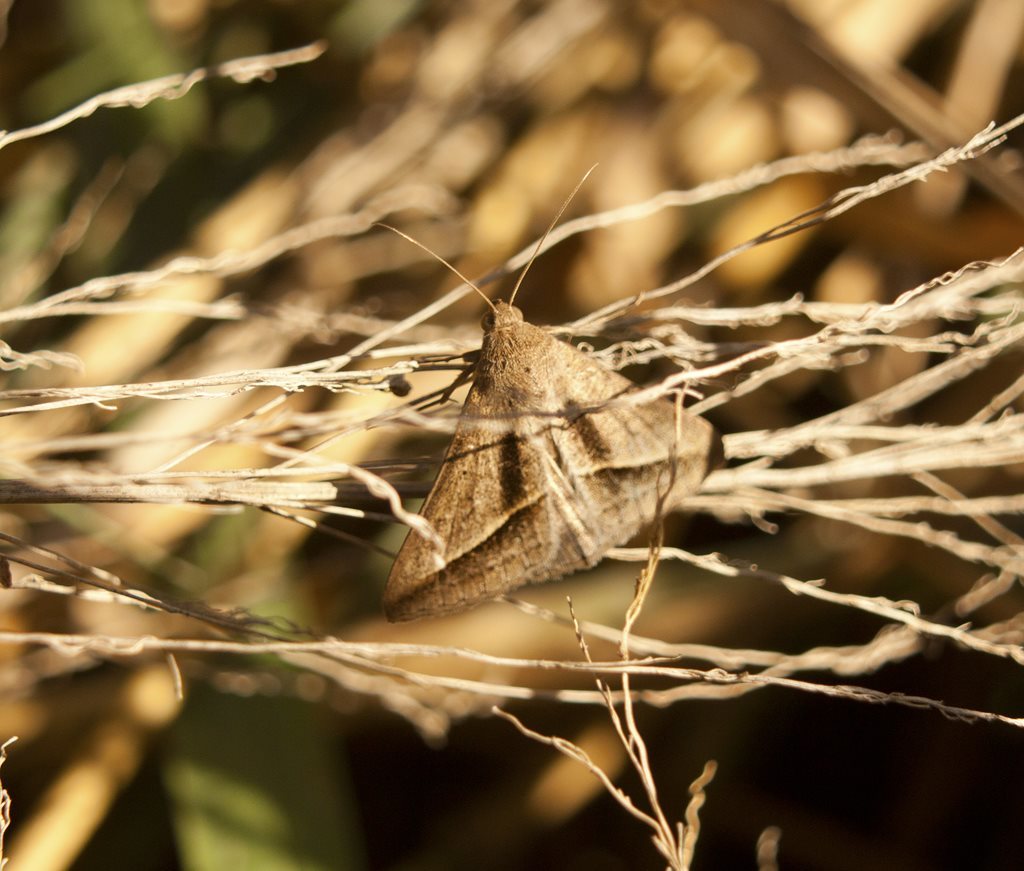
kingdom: Animalia
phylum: Arthropoda
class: Insecta
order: Lepidoptera
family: Erebidae
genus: Mocis
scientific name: Mocis frugalis
